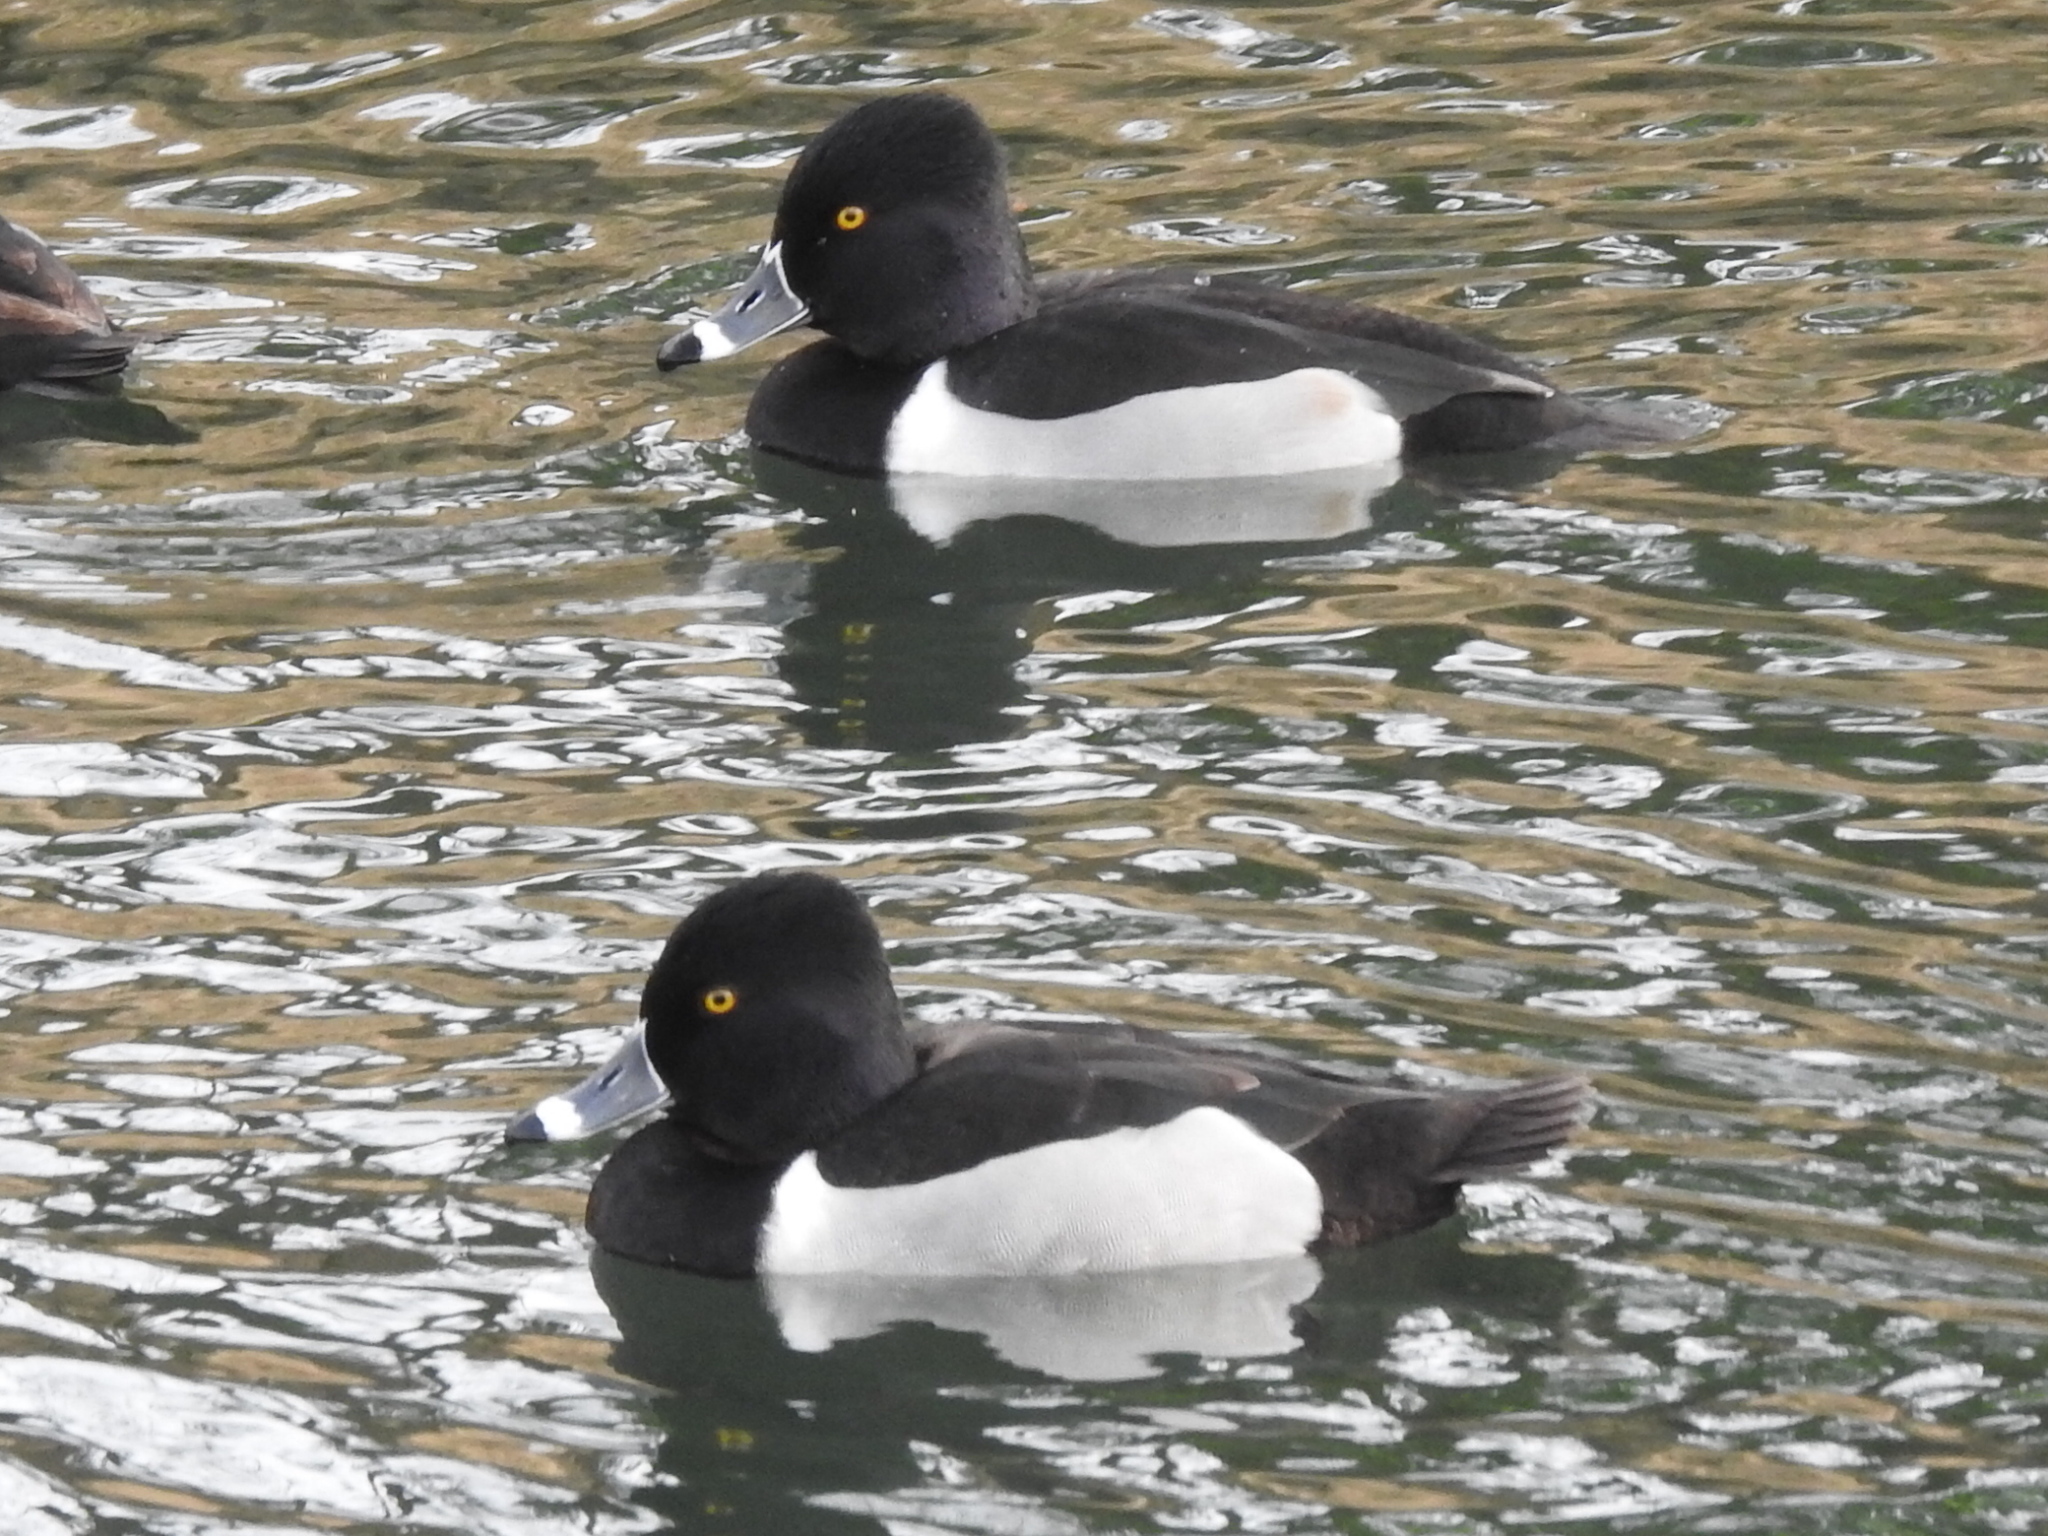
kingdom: Animalia
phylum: Chordata
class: Aves
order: Anseriformes
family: Anatidae
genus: Aythya
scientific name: Aythya collaris
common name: Ring-necked duck
